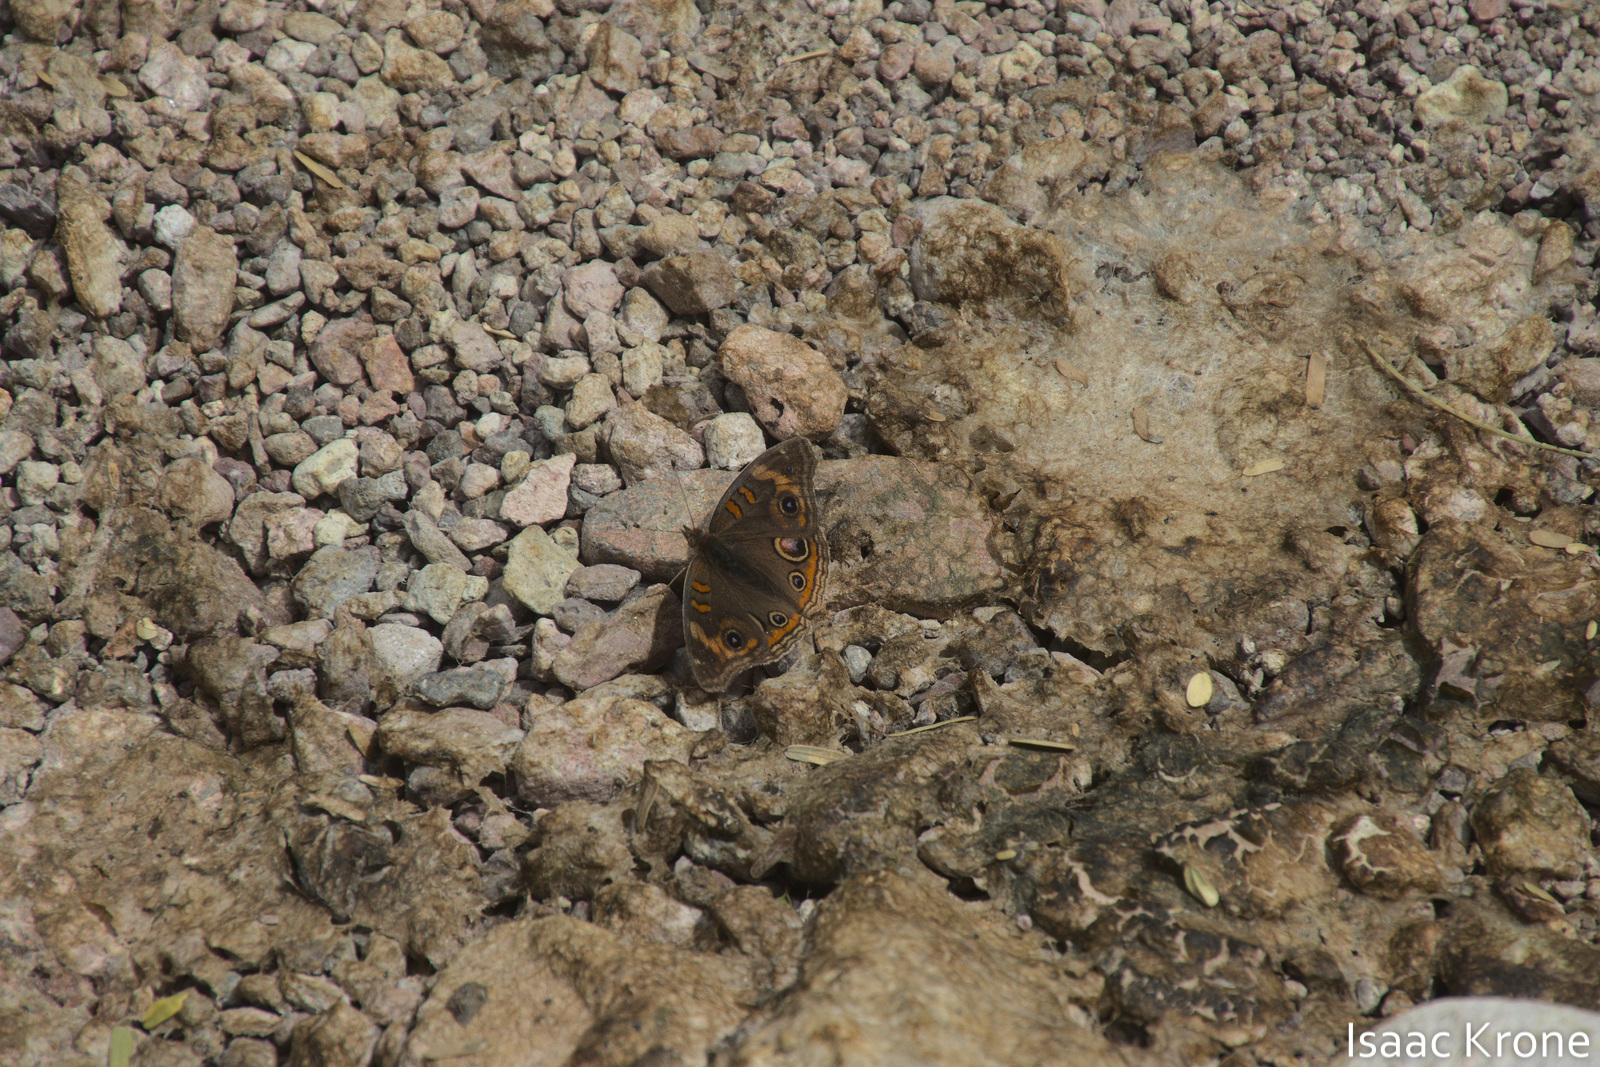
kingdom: Animalia
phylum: Arthropoda
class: Insecta
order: Lepidoptera
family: Nymphalidae
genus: Junonia
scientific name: Junonia grisea
